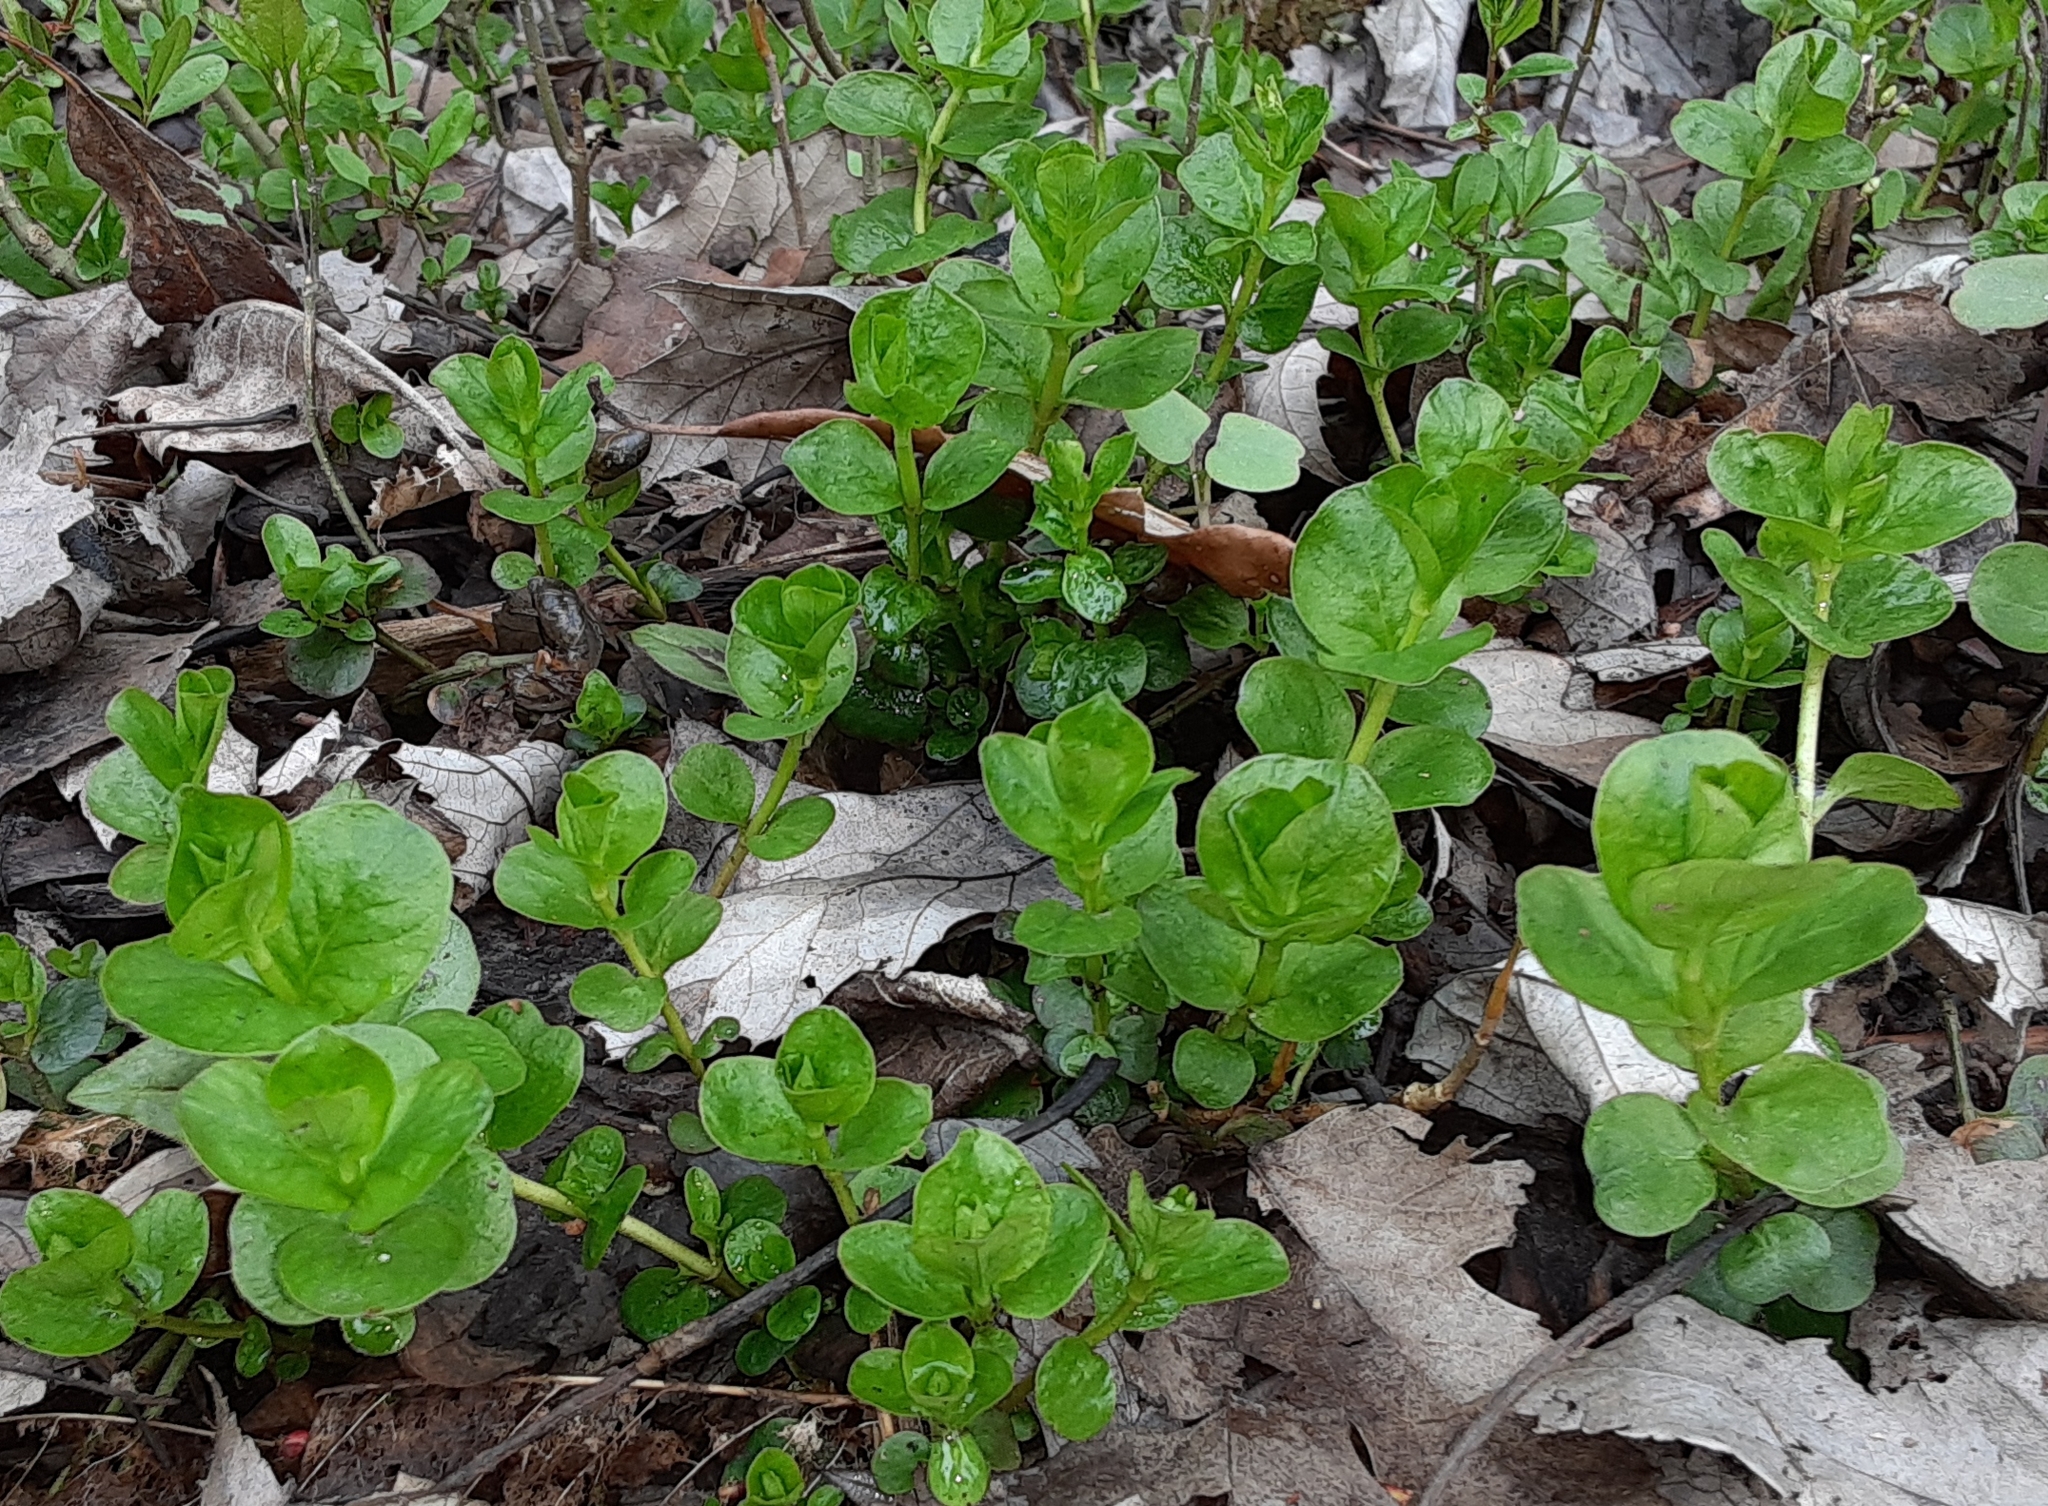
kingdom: Plantae
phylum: Tracheophyta
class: Magnoliopsida
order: Ericales
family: Primulaceae
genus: Lysimachia
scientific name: Lysimachia nummularia
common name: Moneywort
